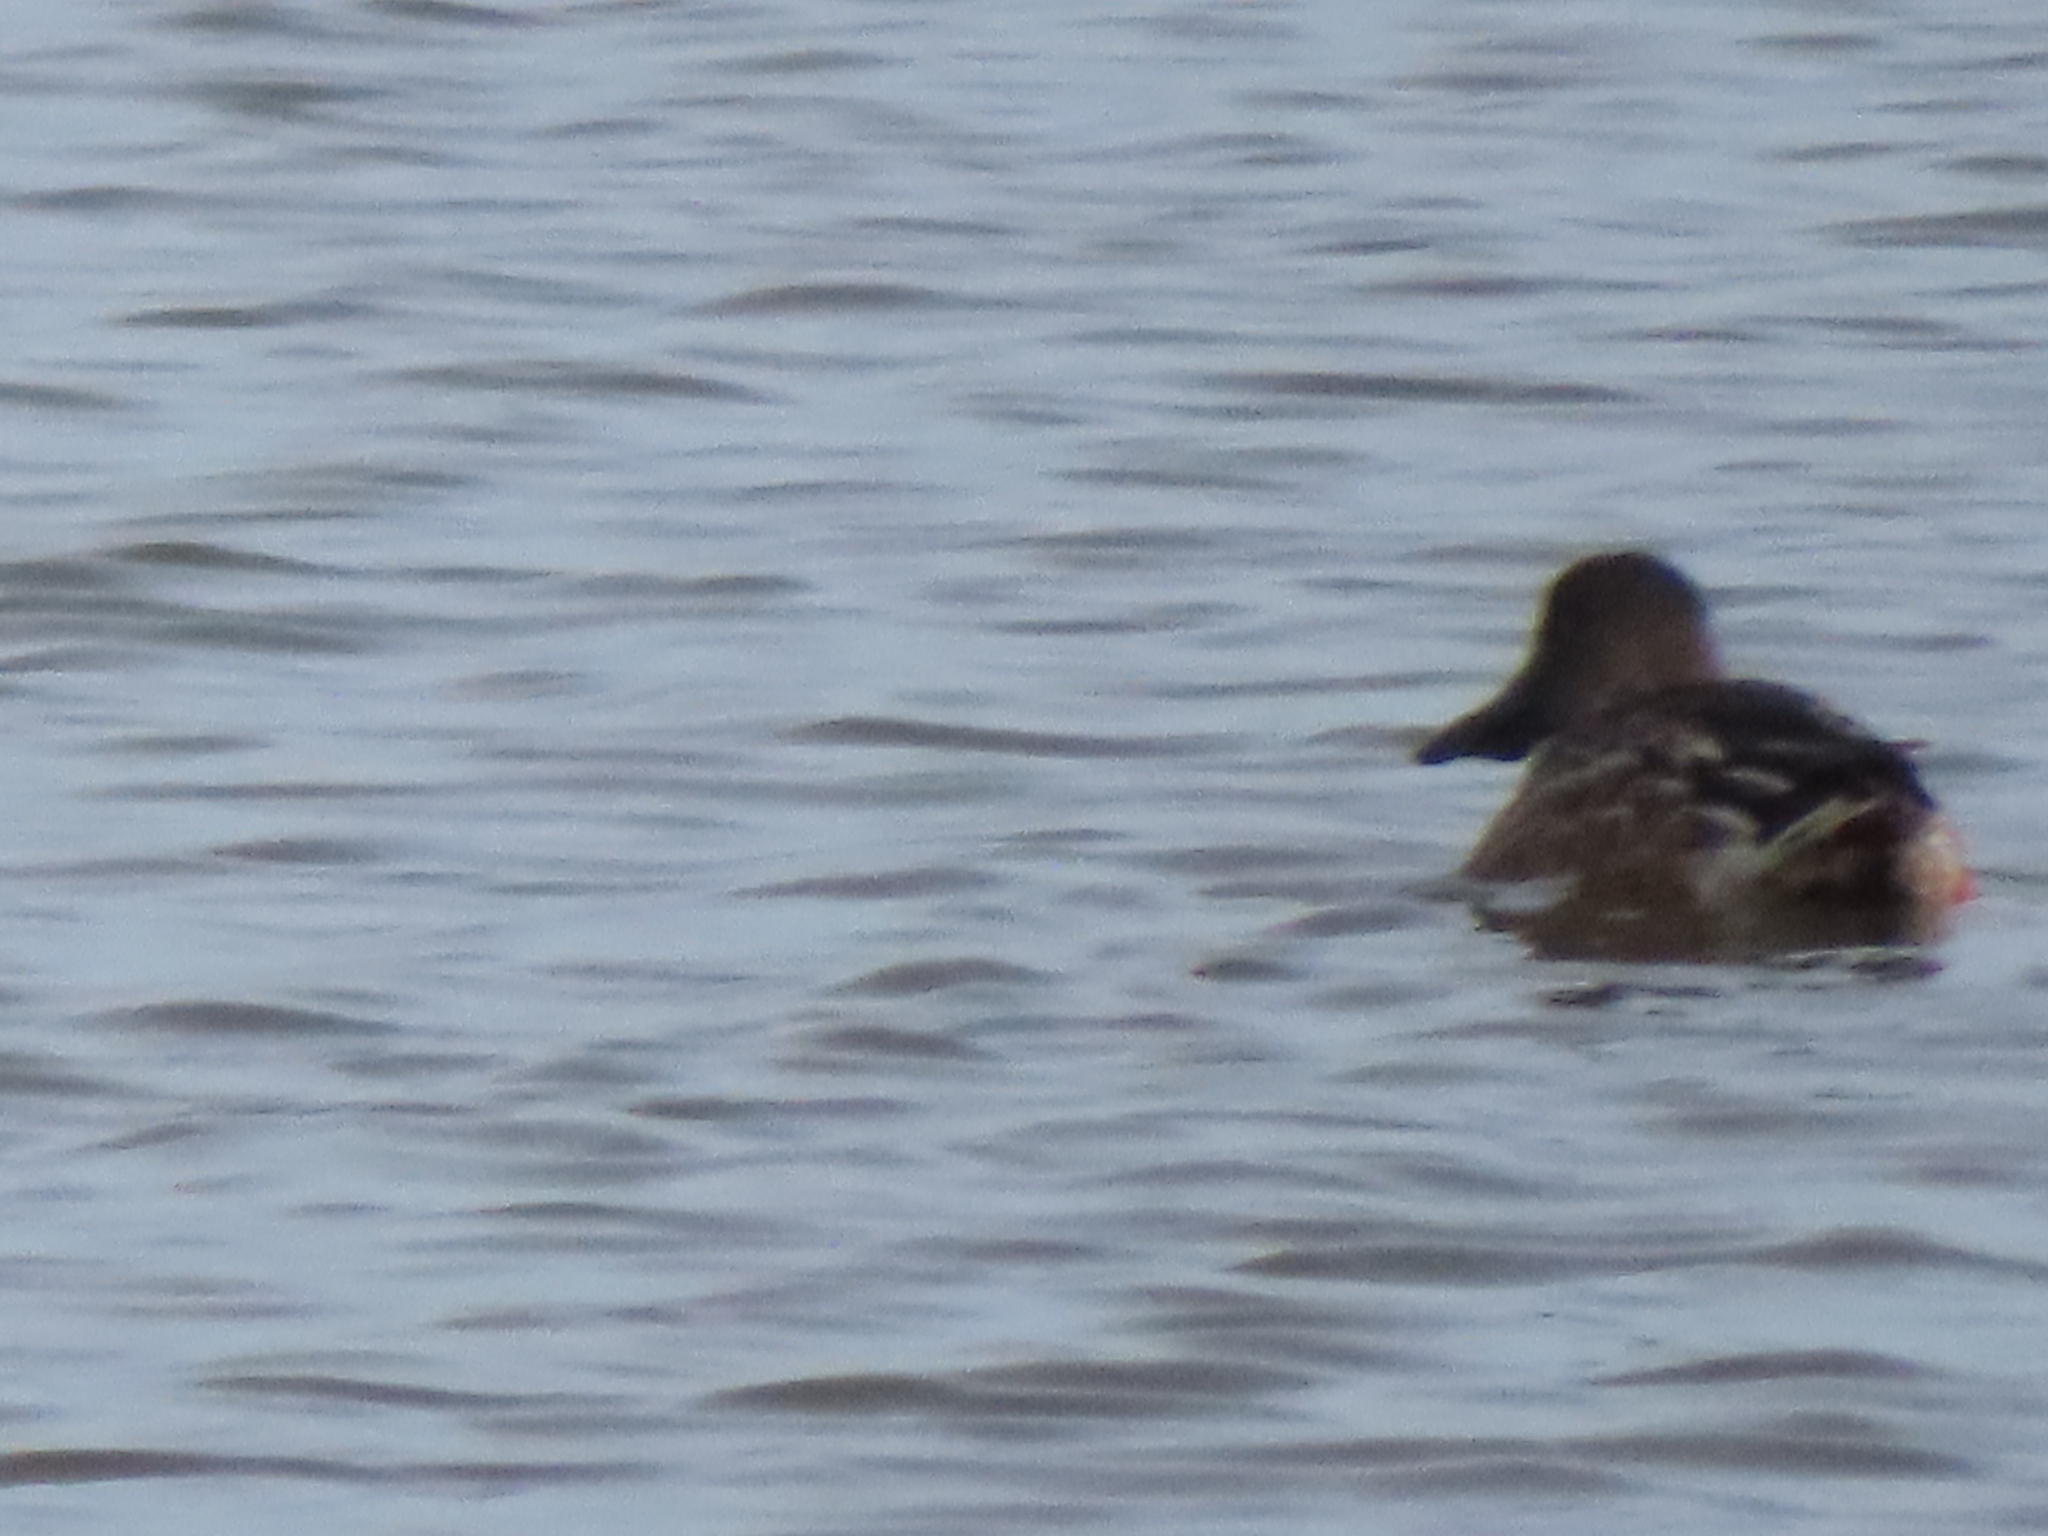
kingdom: Animalia
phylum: Chordata
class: Aves
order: Anseriformes
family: Anatidae
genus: Spatula
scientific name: Spatula clypeata
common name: Northern shoveler
